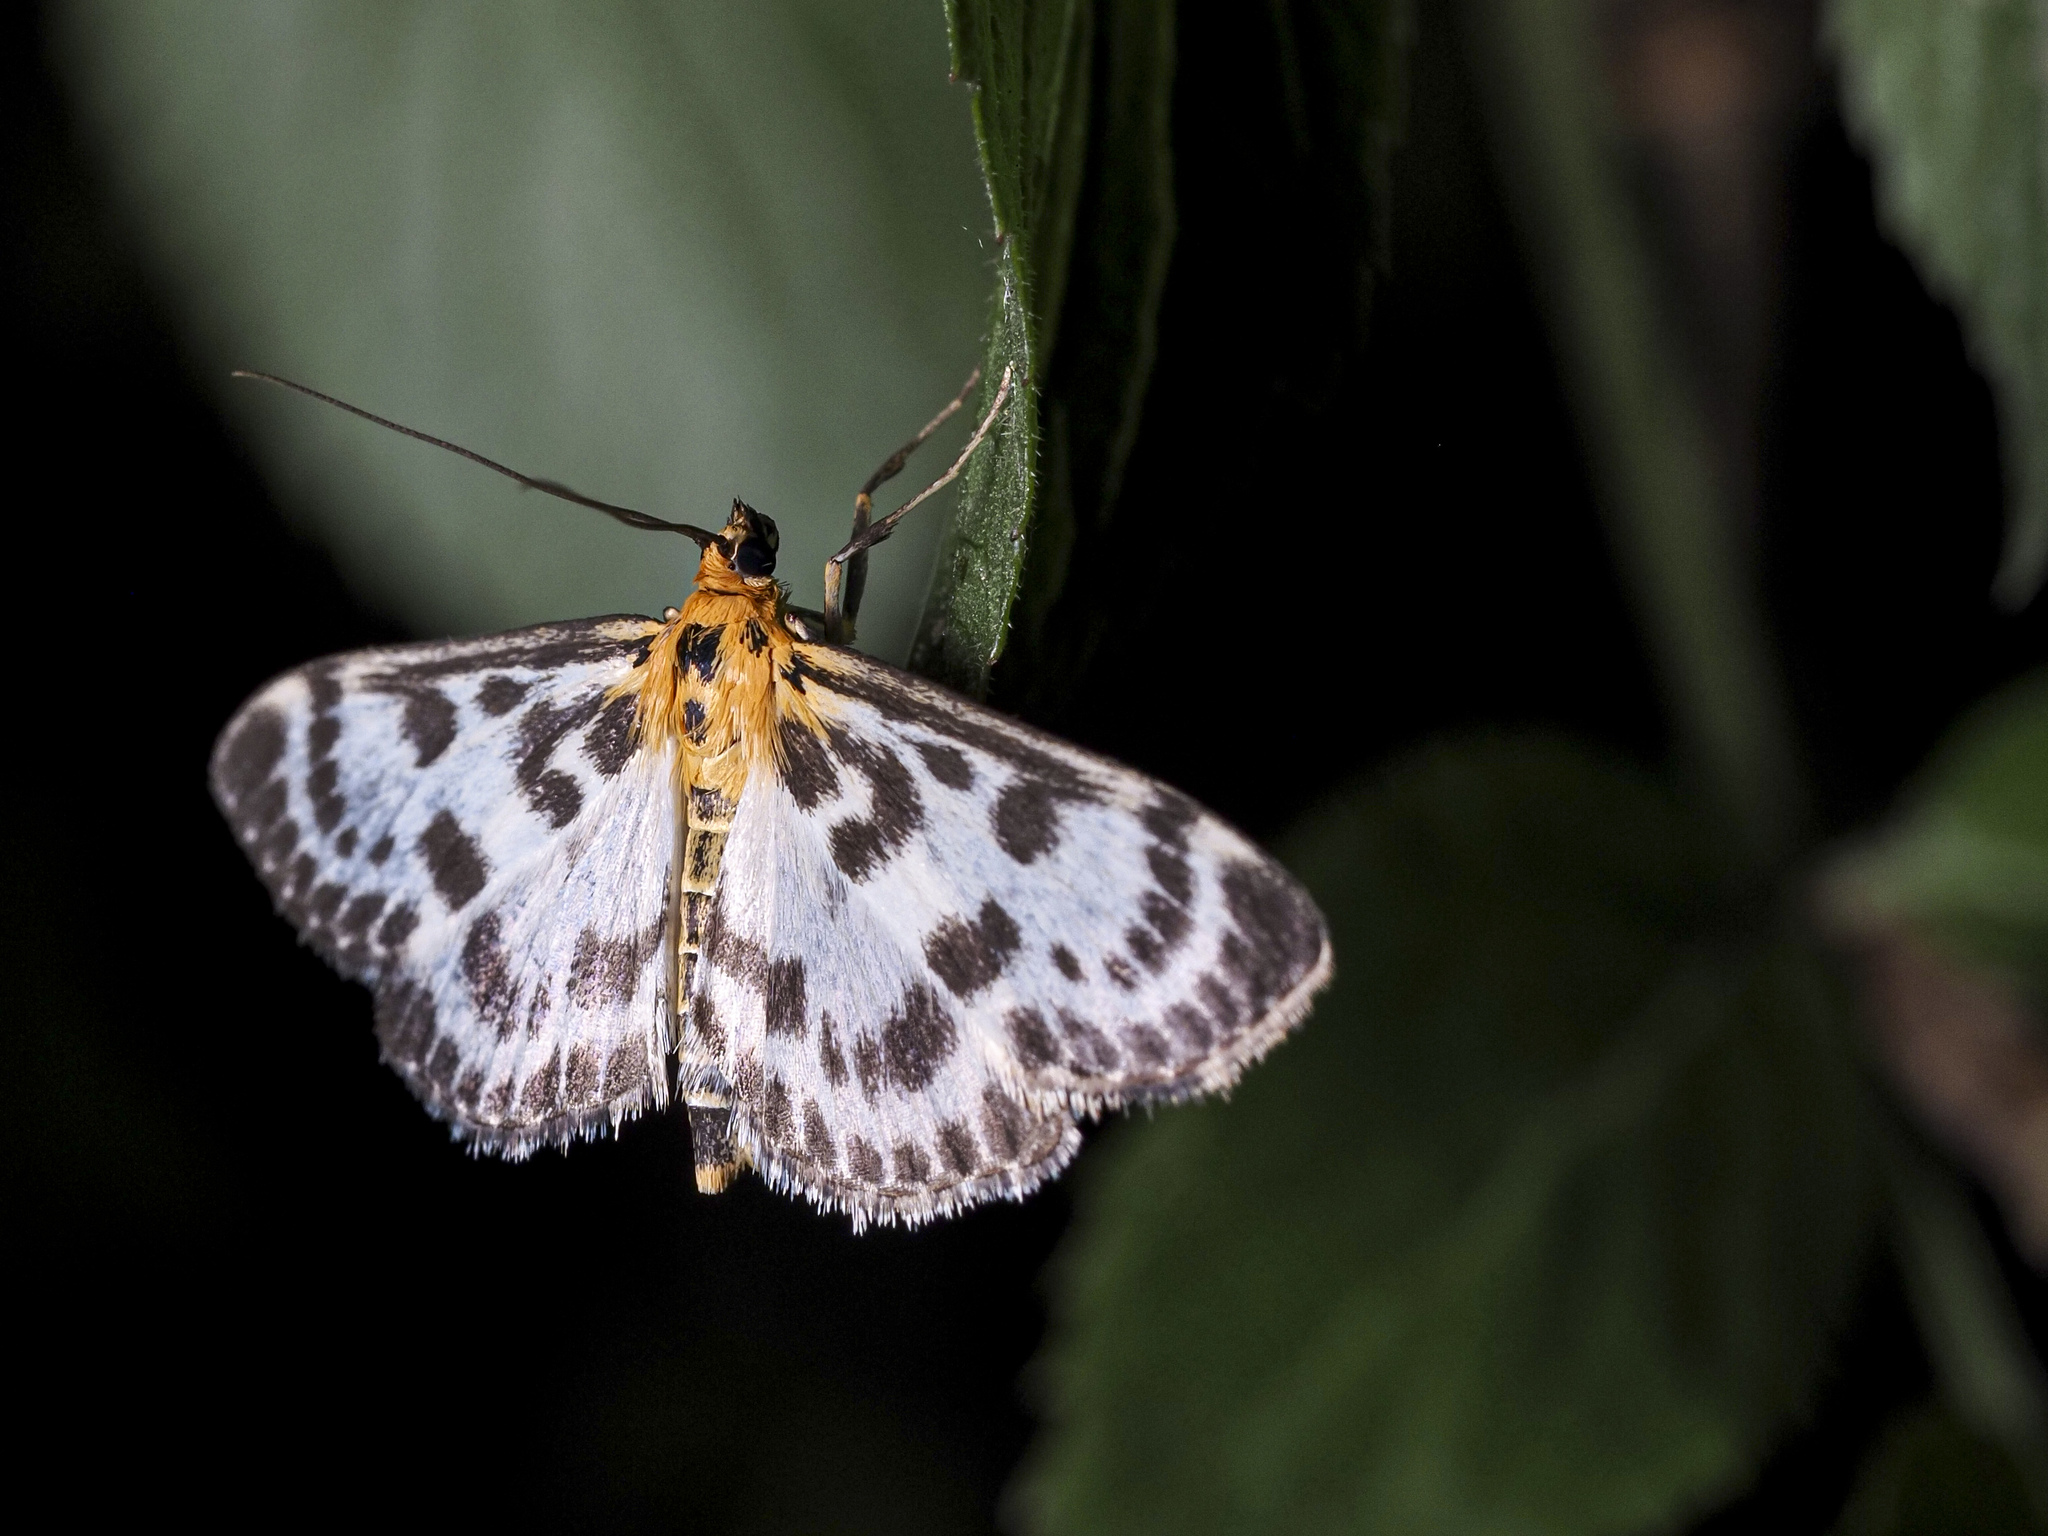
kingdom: Animalia
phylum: Arthropoda
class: Insecta
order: Lepidoptera
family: Crambidae
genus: Anania
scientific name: Anania hortulata
